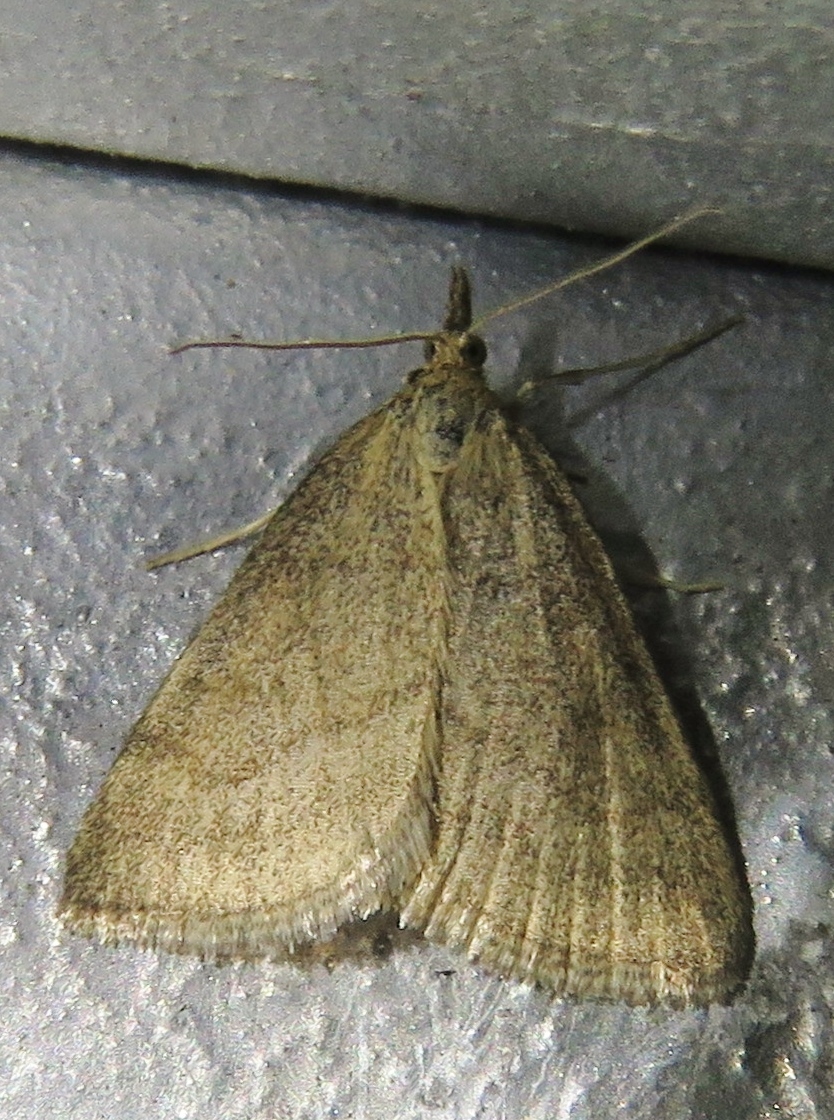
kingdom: Animalia
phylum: Arthropoda
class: Insecta
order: Lepidoptera
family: Crambidae
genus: Psammotis
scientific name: Psammotis viminalis
